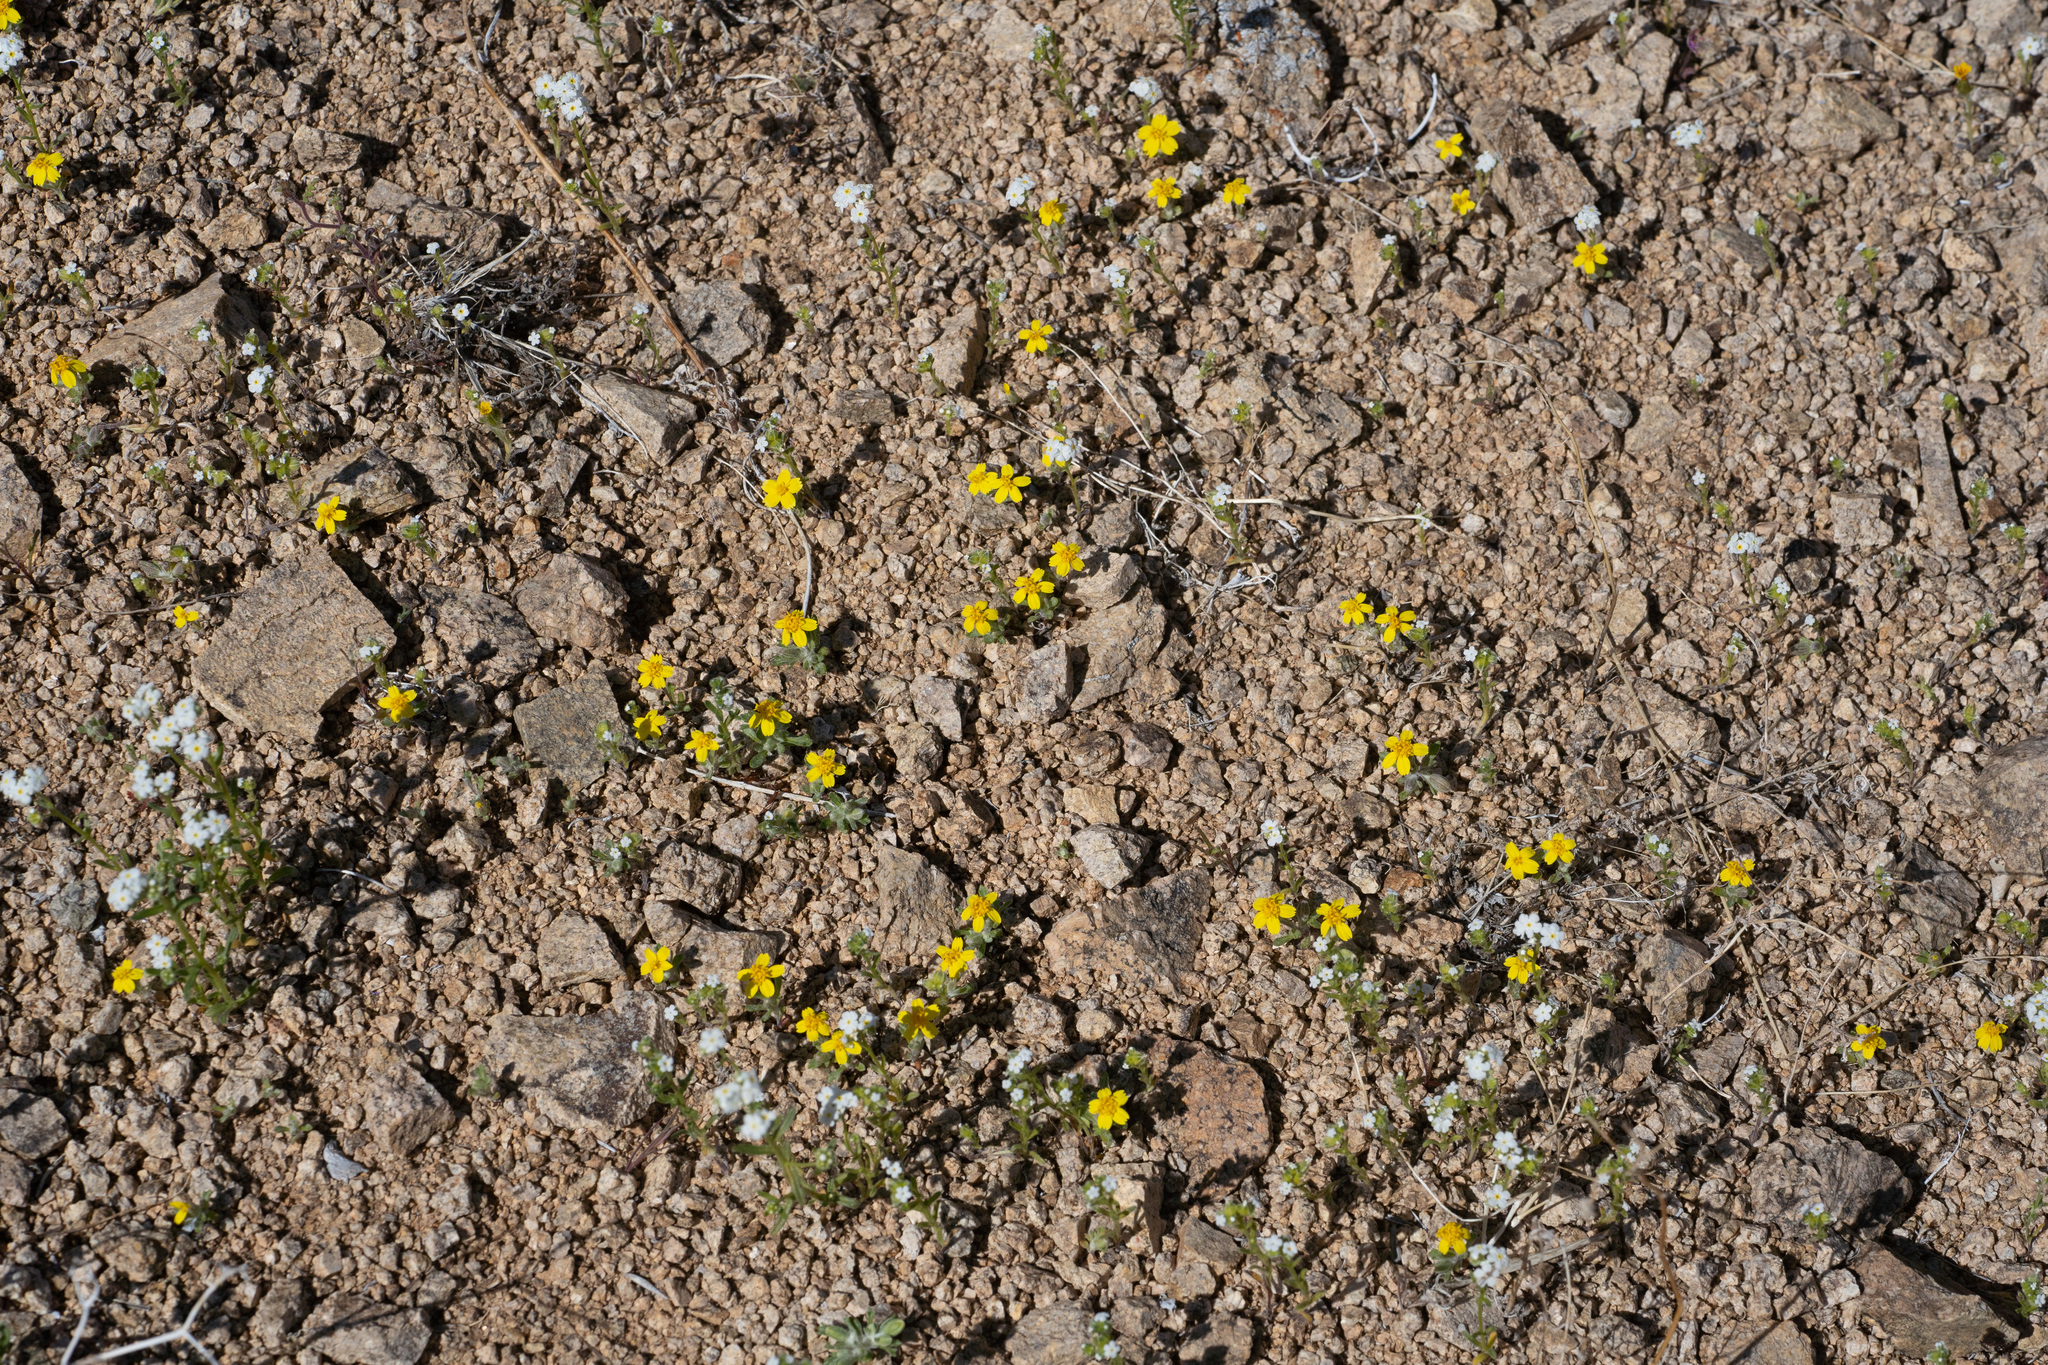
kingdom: Plantae
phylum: Tracheophyta
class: Magnoliopsida
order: Asterales
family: Asteraceae
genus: Syntrichopappus
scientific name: Syntrichopappus fremontii
